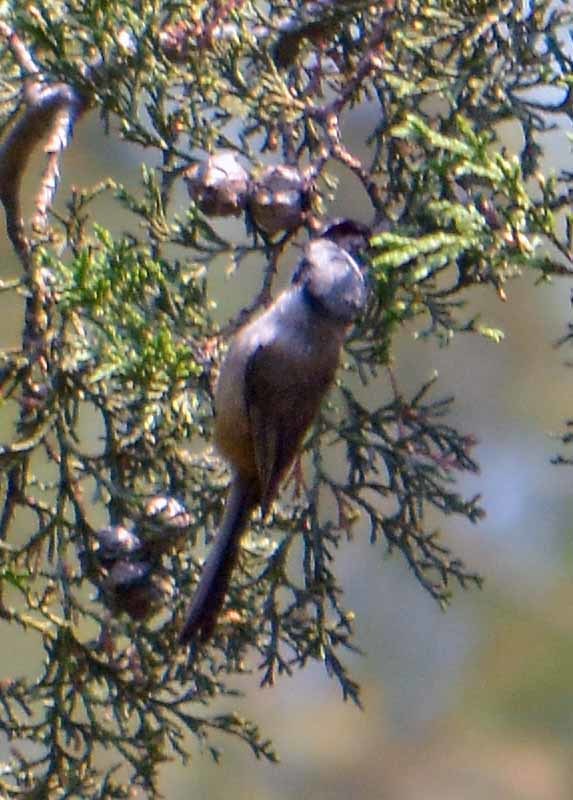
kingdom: Animalia
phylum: Chordata
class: Aves
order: Passeriformes
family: Aegithalidae
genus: Psaltriparus
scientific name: Psaltriparus minimus
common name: American bushtit
